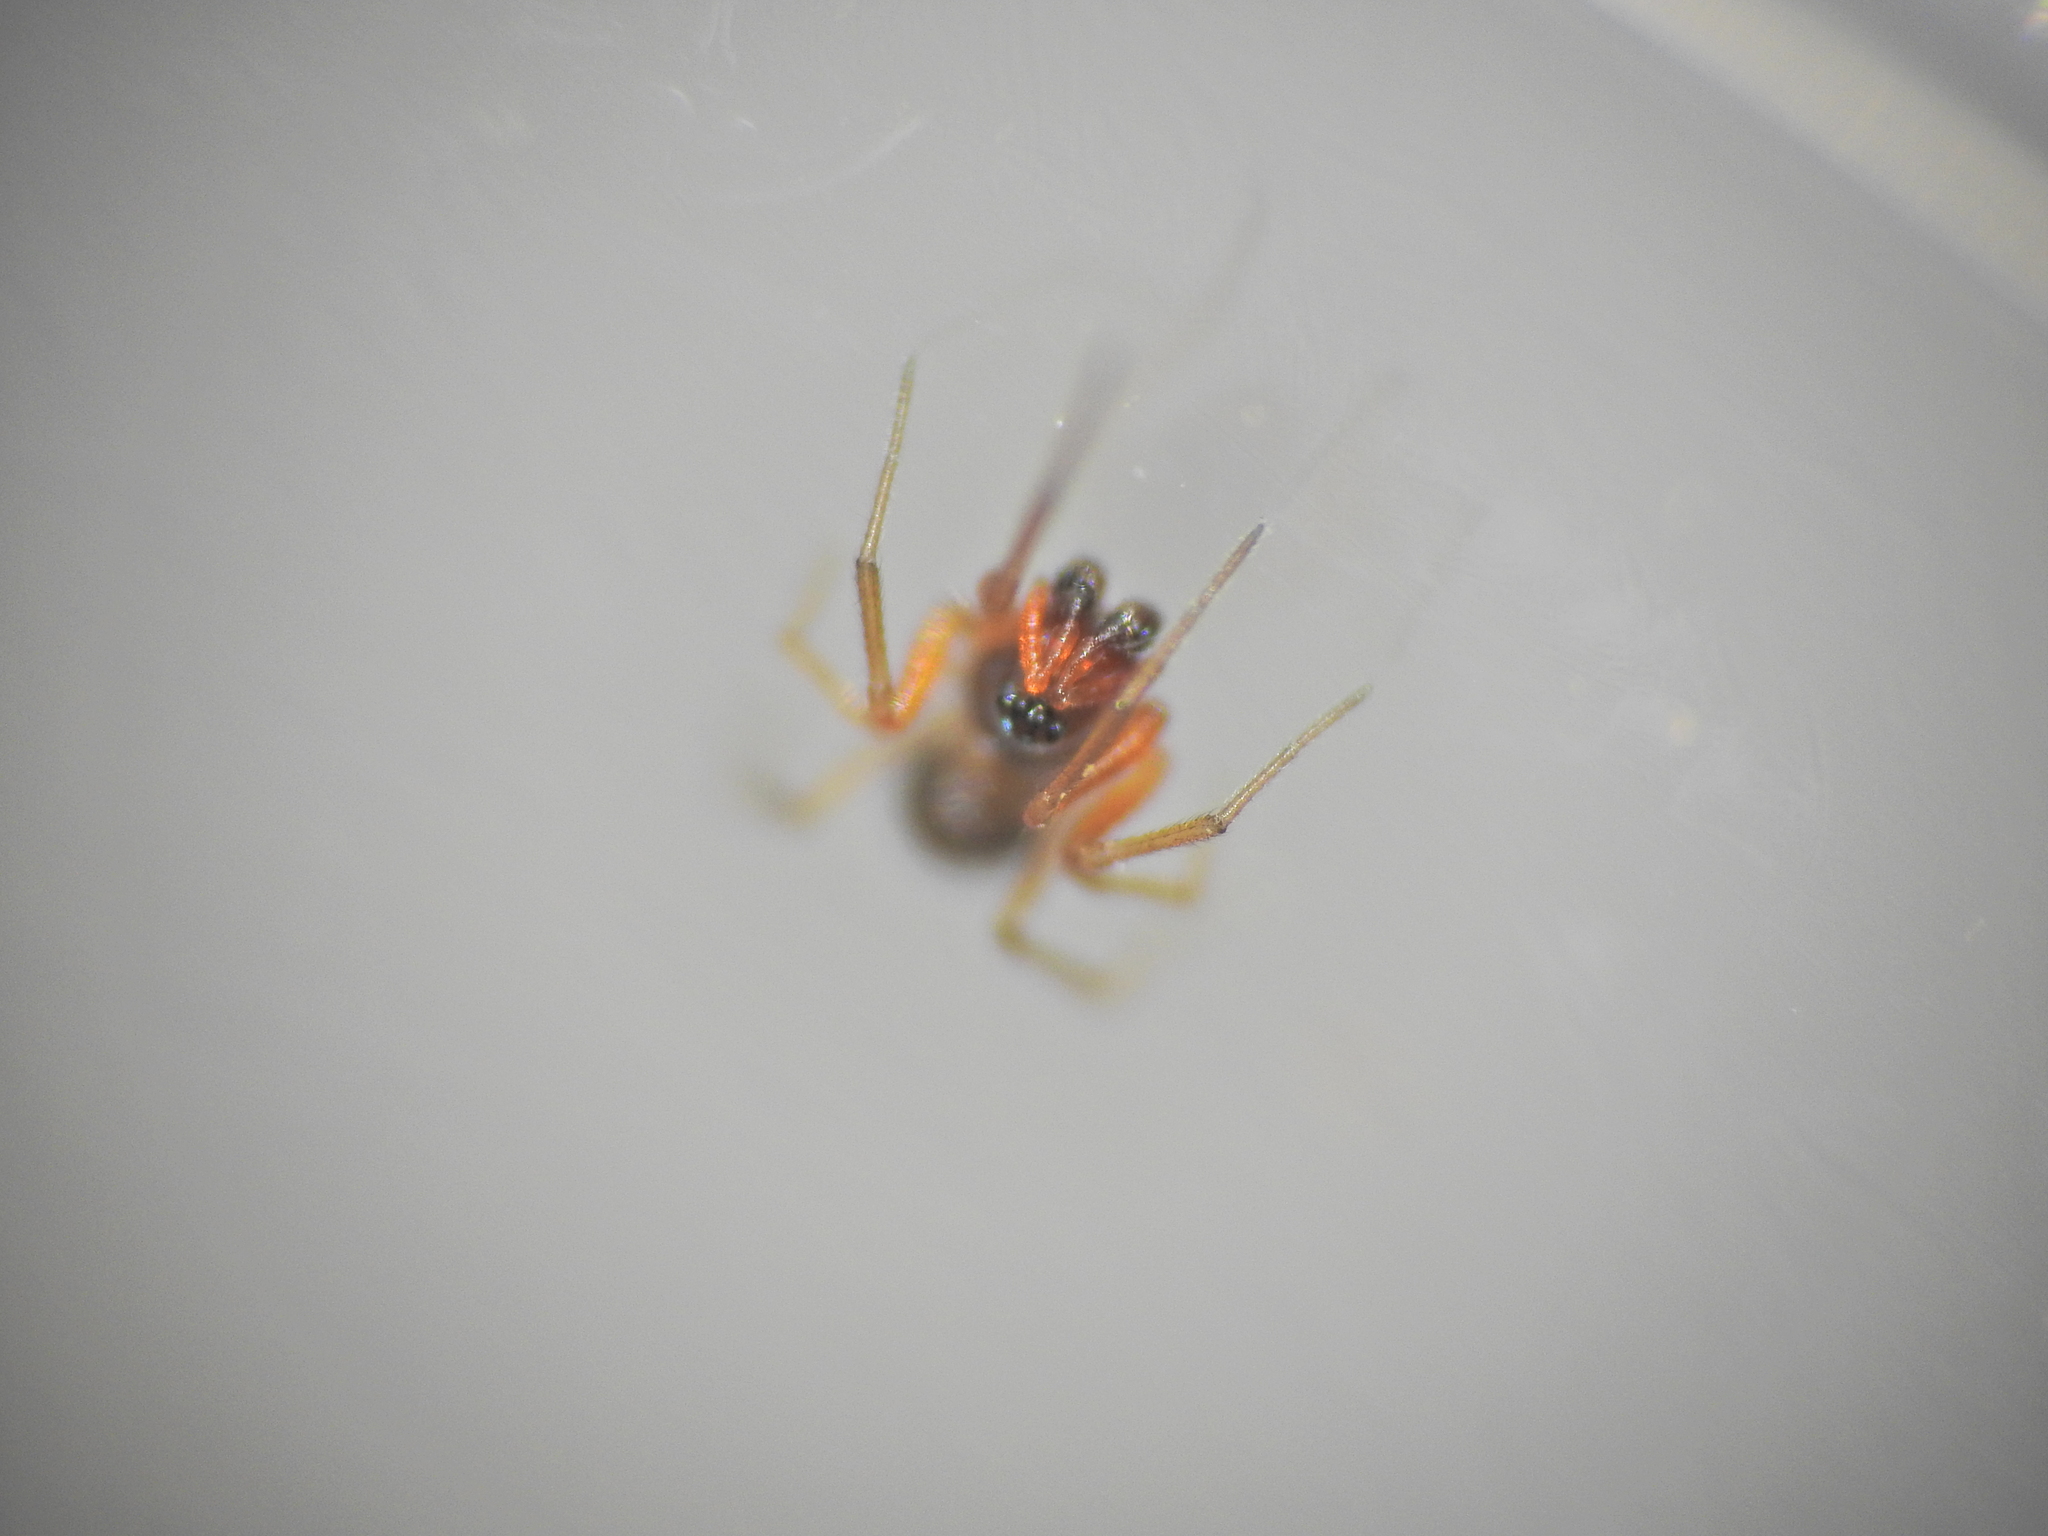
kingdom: Animalia
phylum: Arthropoda
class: Arachnida
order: Araneae
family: Linyphiidae
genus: Erigone
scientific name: Erigone eisenschmidti
